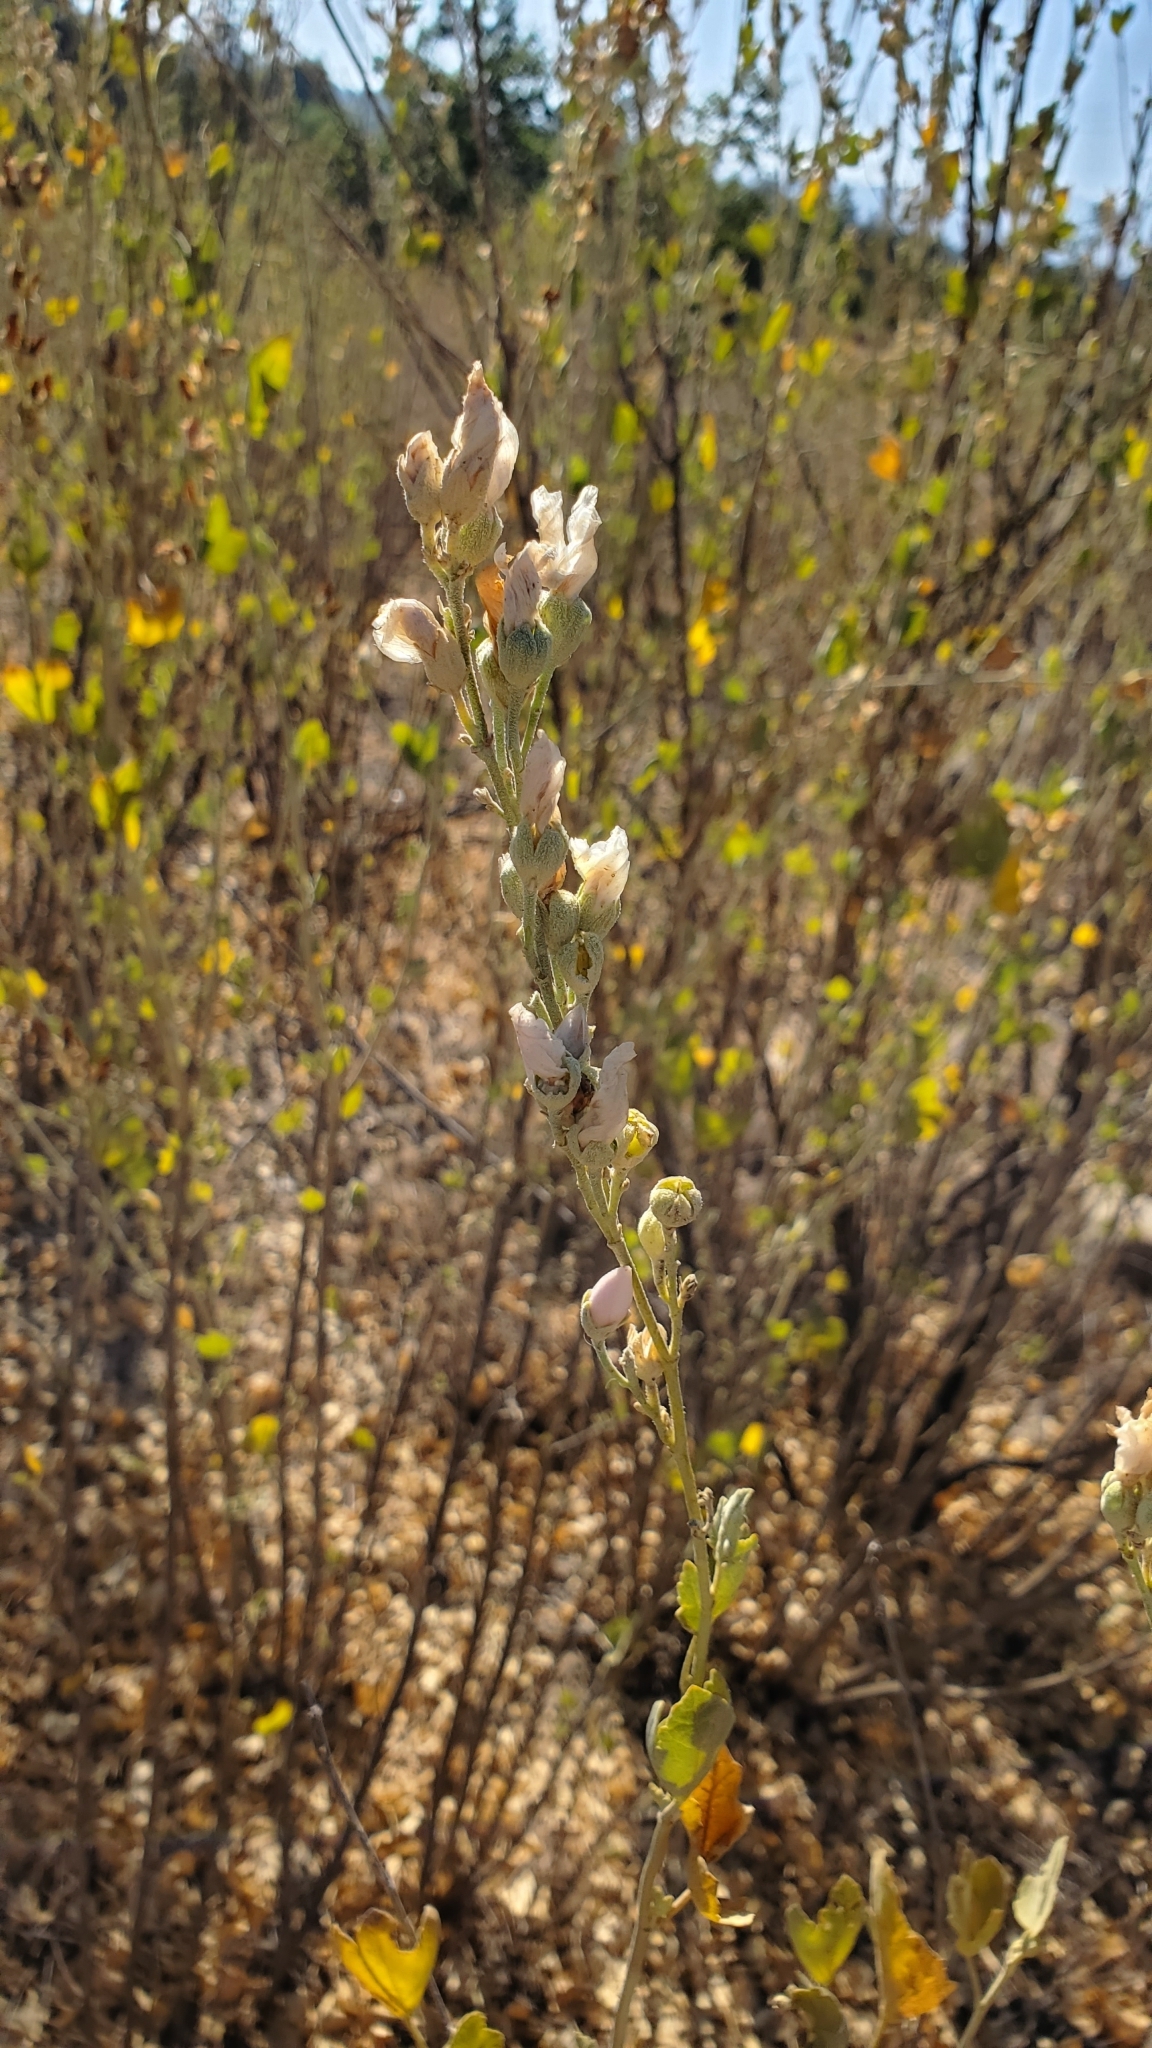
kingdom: Plantae
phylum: Tracheophyta
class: Magnoliopsida
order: Malvales
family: Malvaceae
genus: Malacothamnus
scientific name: Malacothamnus fasciculatus
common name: Sant cruz island bush-mallow
